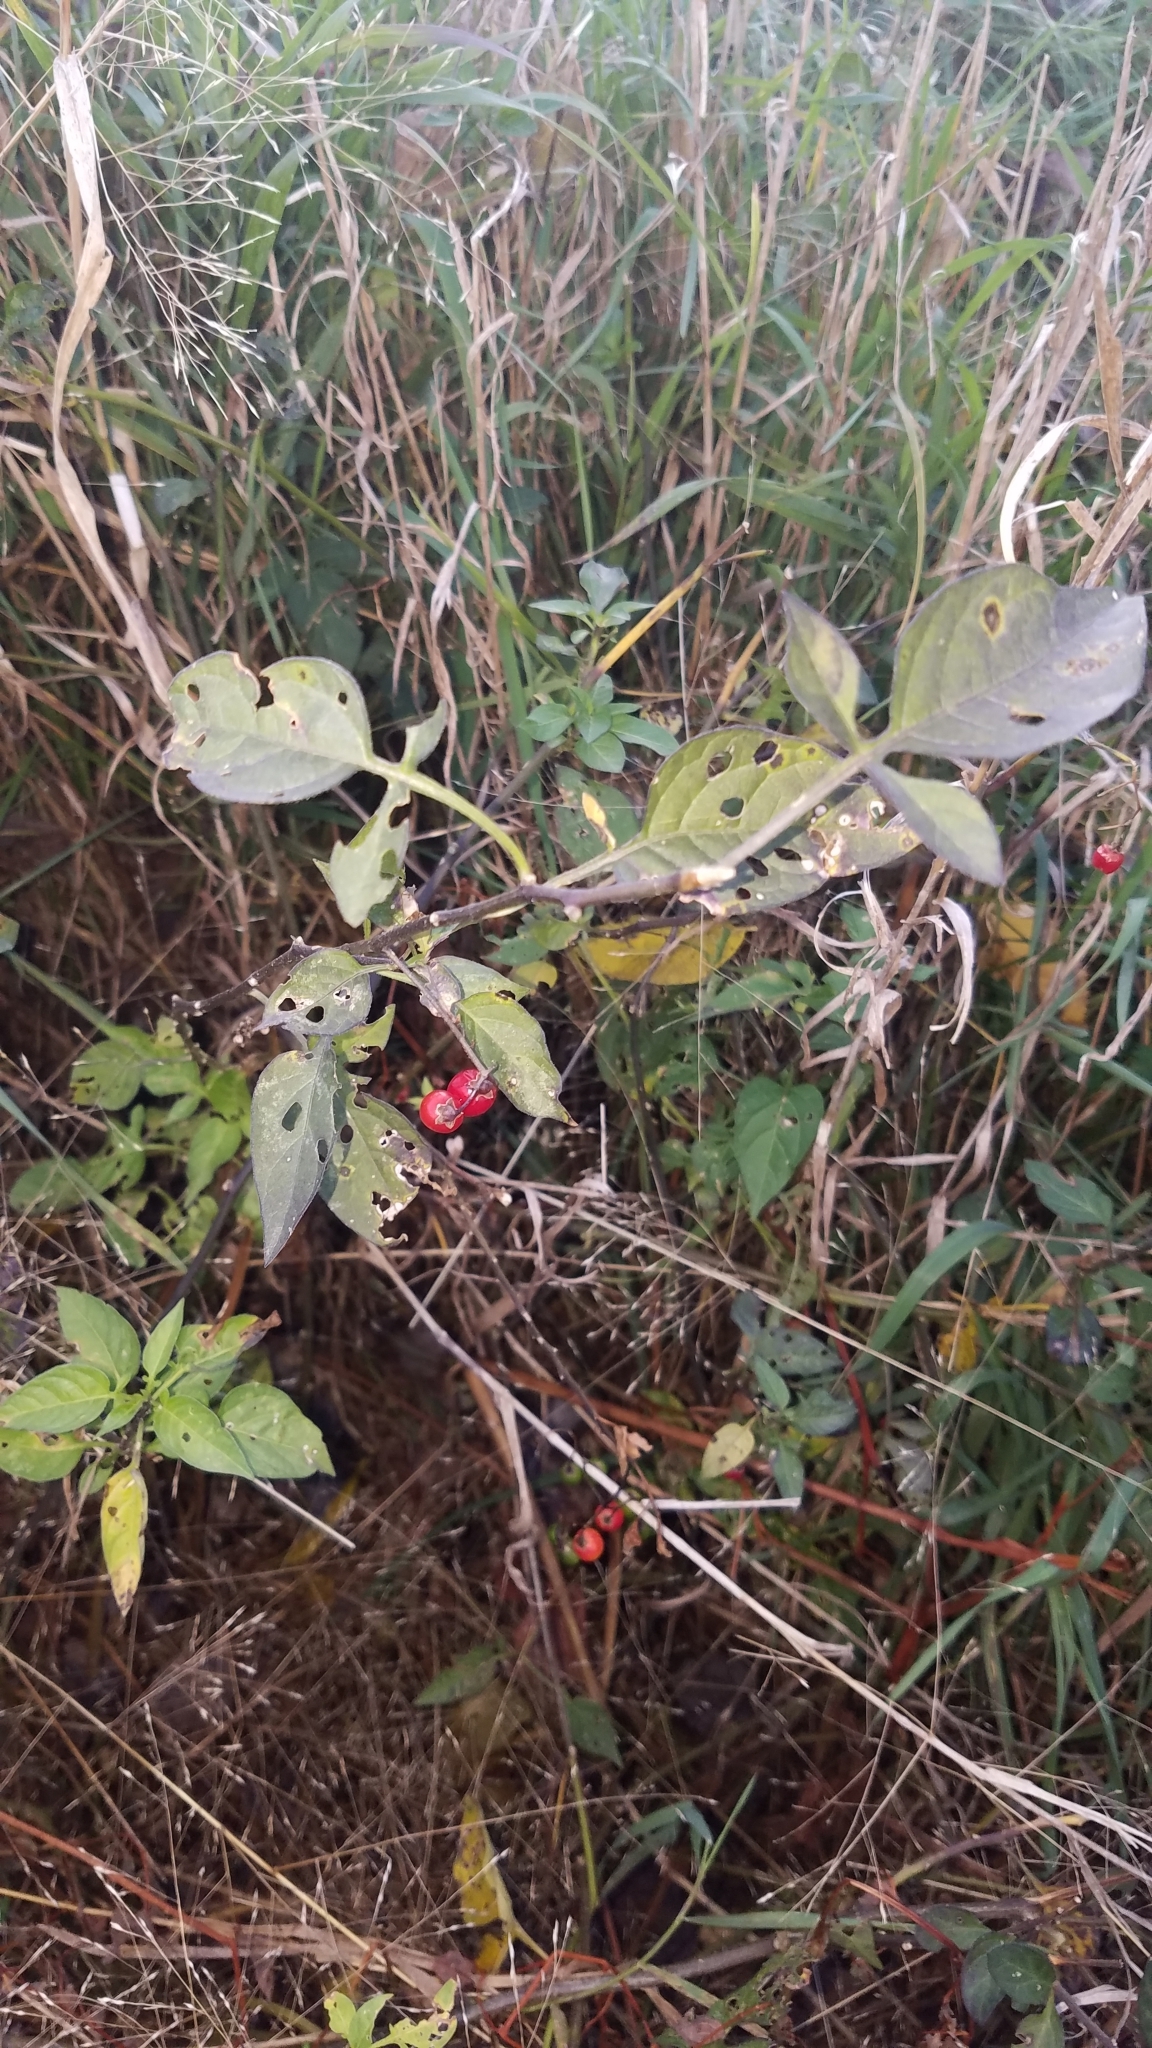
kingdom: Plantae
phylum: Tracheophyta
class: Magnoliopsida
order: Solanales
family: Solanaceae
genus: Solanum
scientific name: Solanum dulcamara
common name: Climbing nightshade
